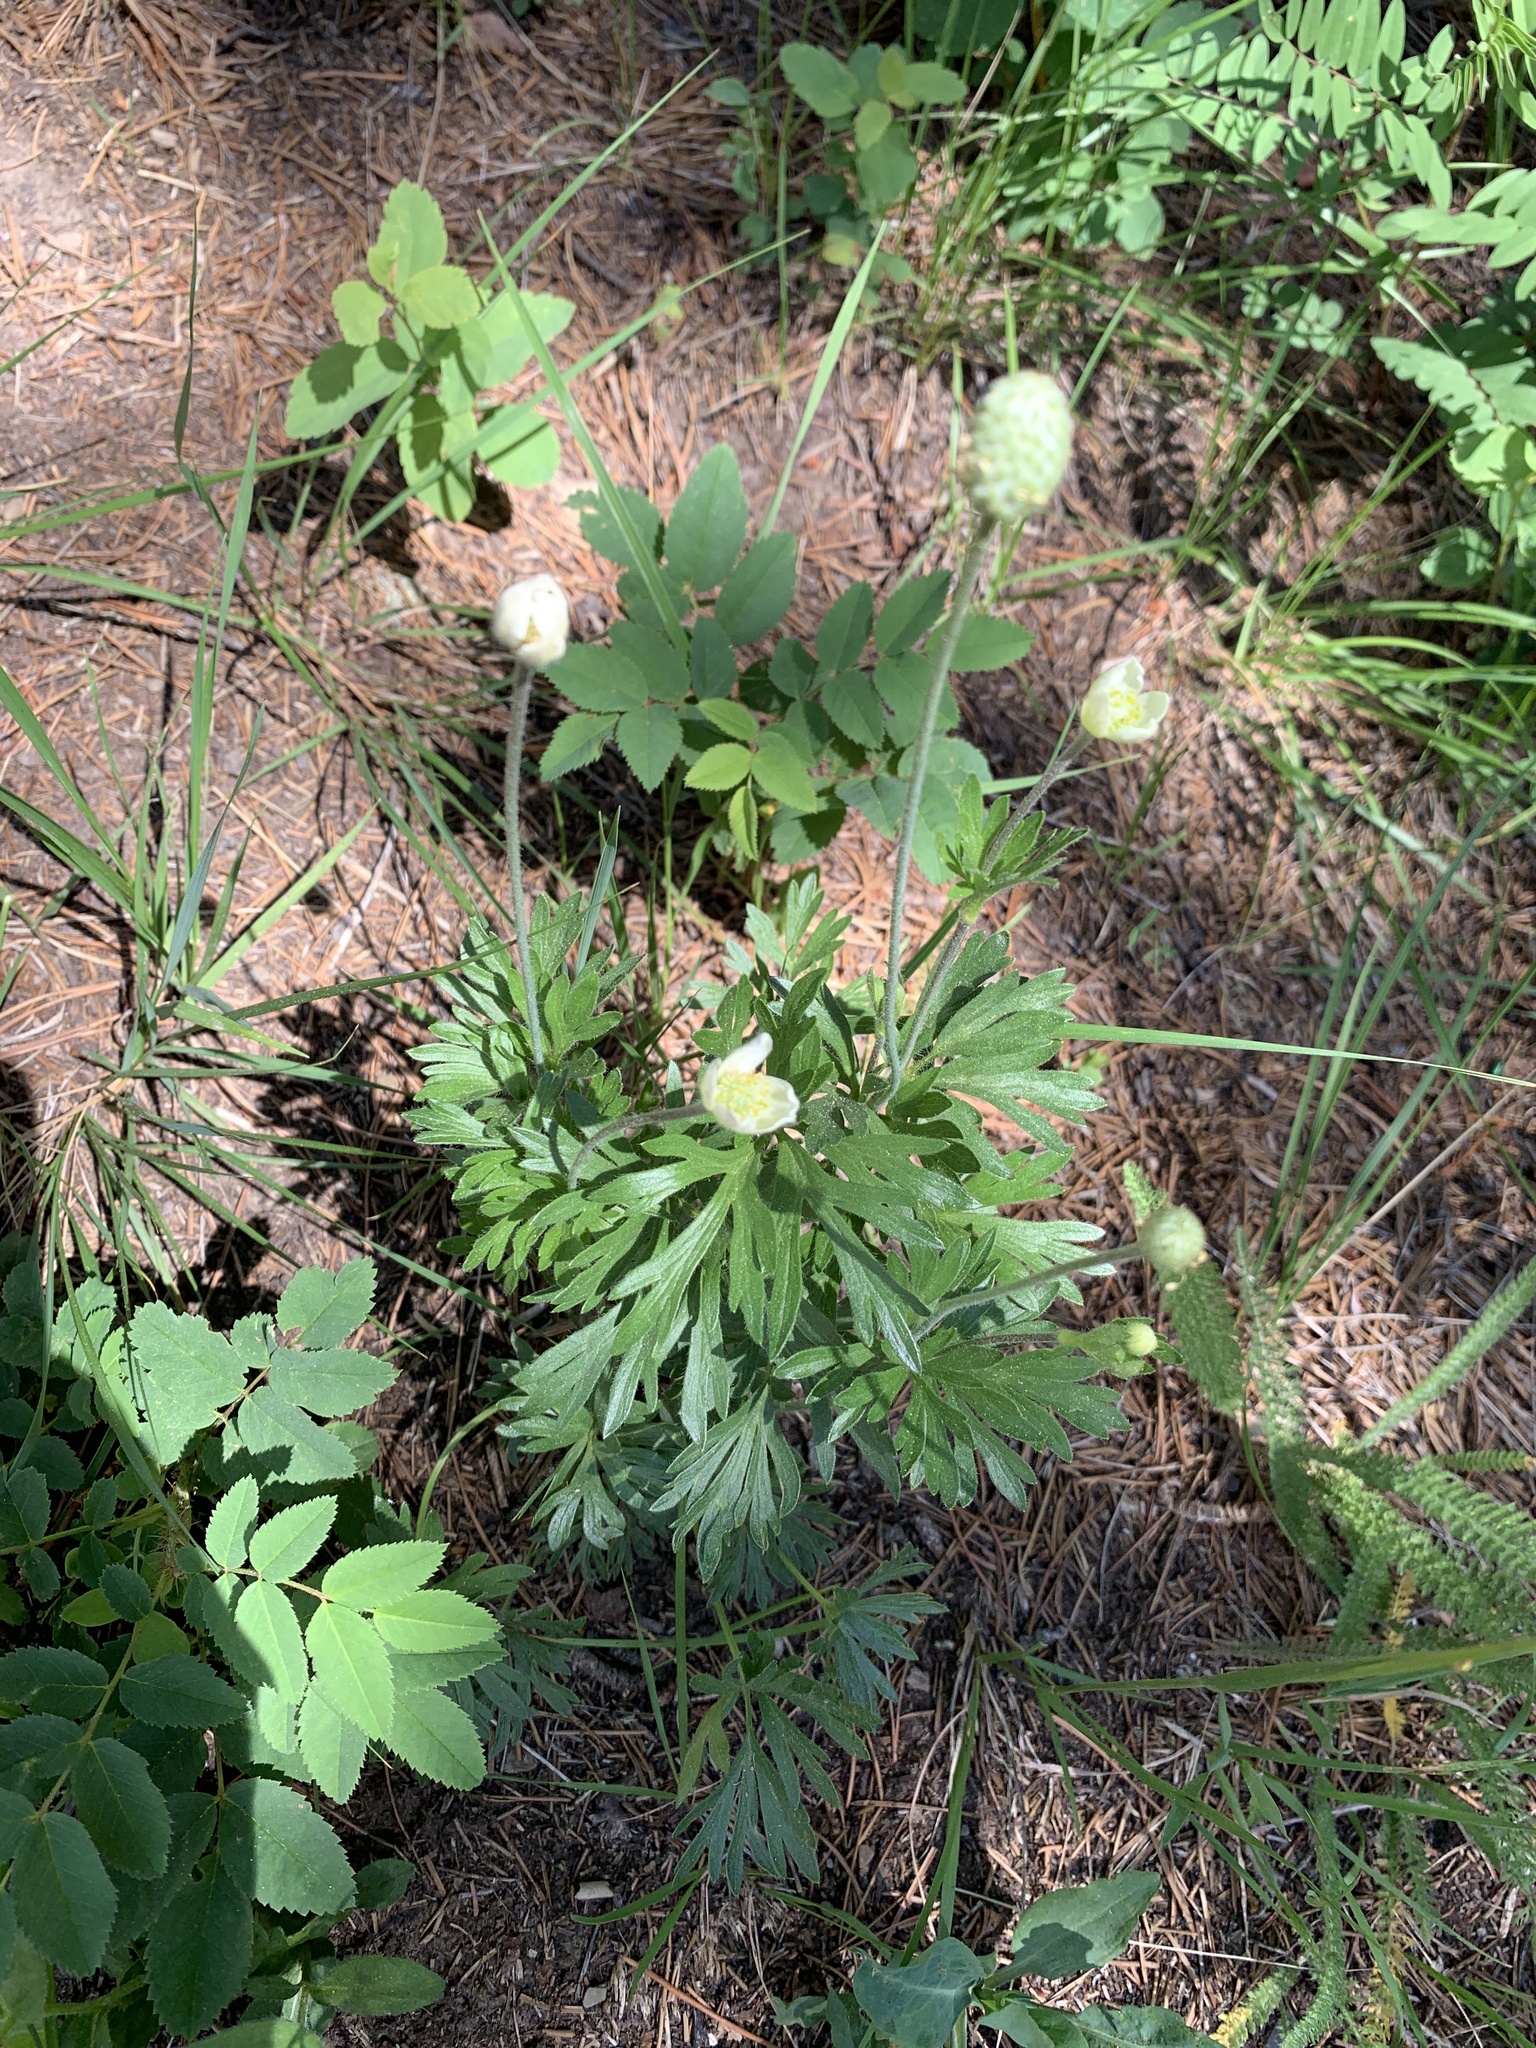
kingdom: Plantae
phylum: Tracheophyta
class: Magnoliopsida
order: Ranunculales
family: Ranunculaceae
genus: Anemone
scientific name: Anemone multifida
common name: Bird's-foot anemone
